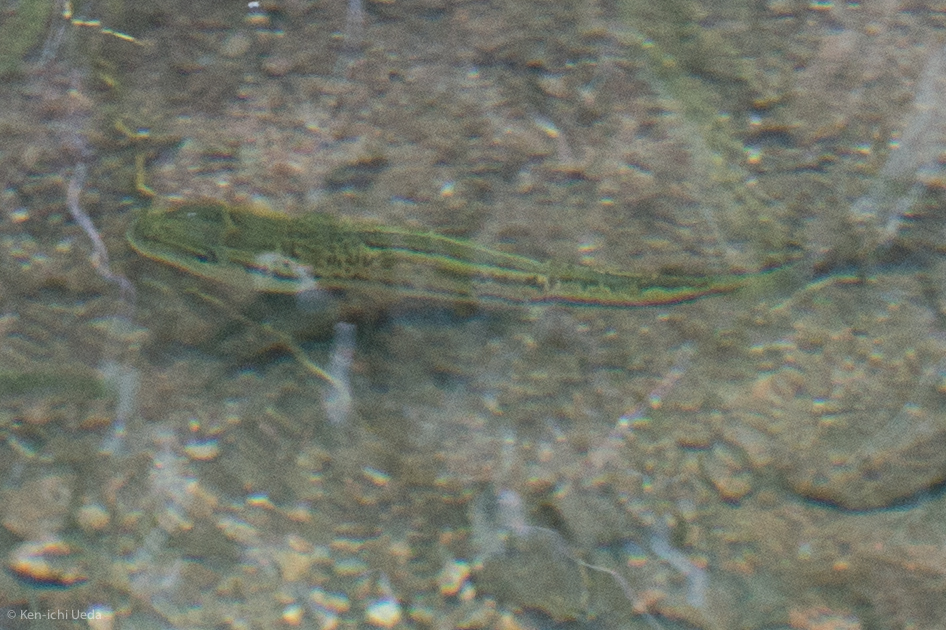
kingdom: Animalia
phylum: Chordata
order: Perciformes
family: Centrarchidae
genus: Micropterus
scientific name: Micropterus
